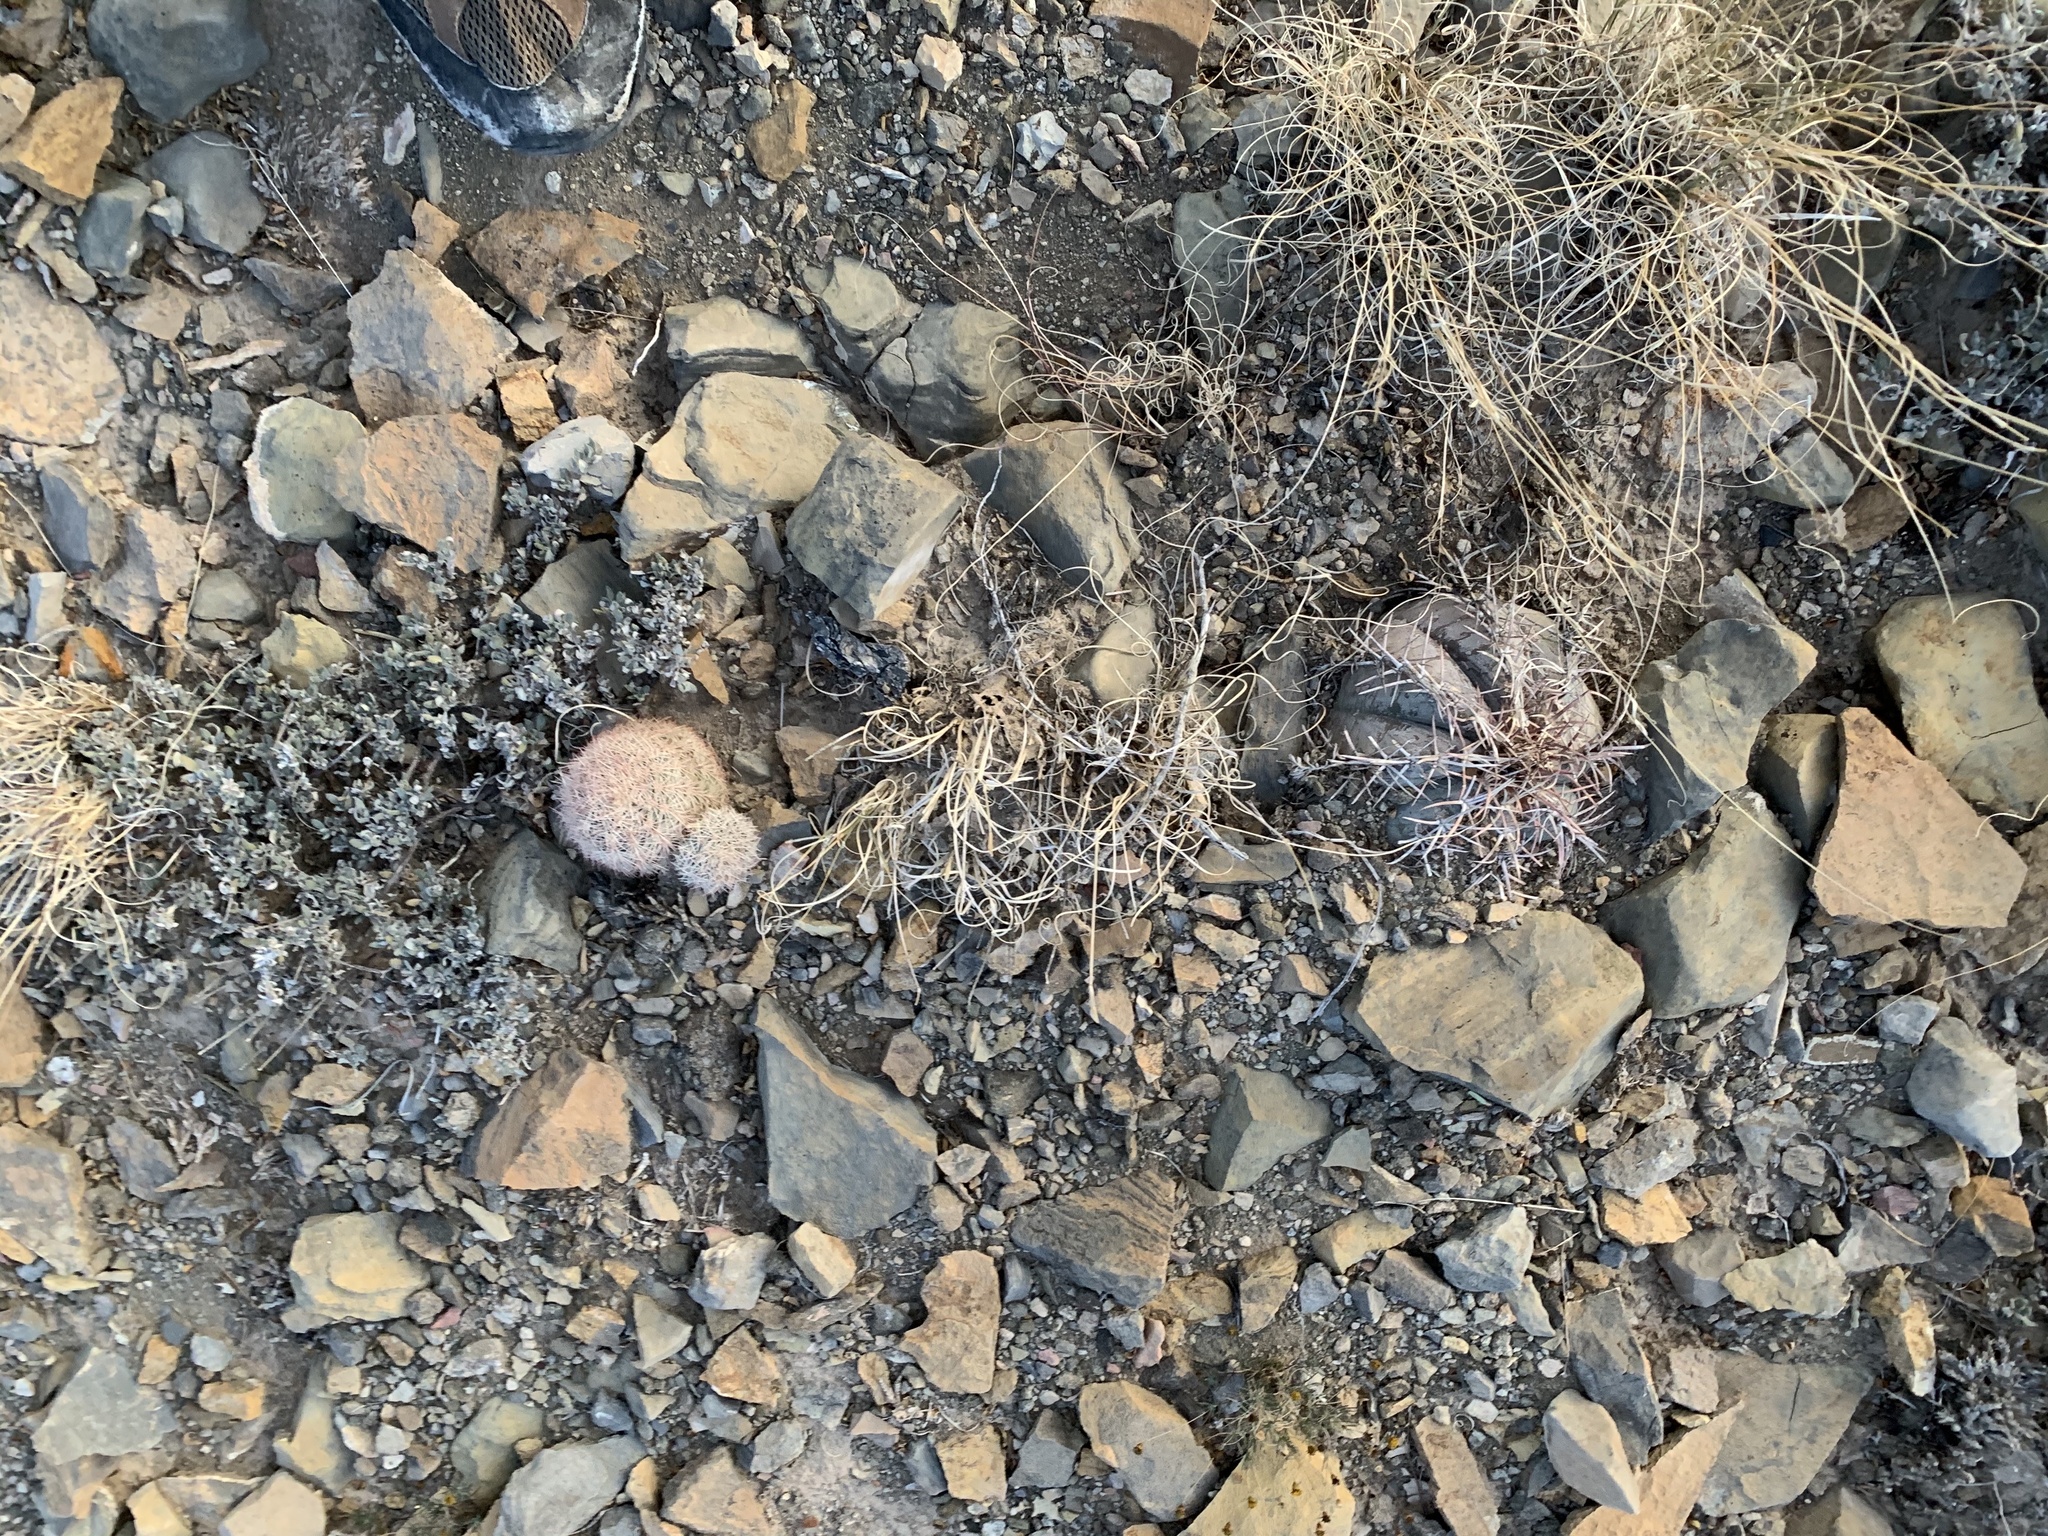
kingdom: Plantae
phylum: Tracheophyta
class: Magnoliopsida
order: Caryophyllales
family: Cactaceae
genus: Echinocereus
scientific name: Echinocereus dasyacanthus
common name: Spiny hedgehog cactus
